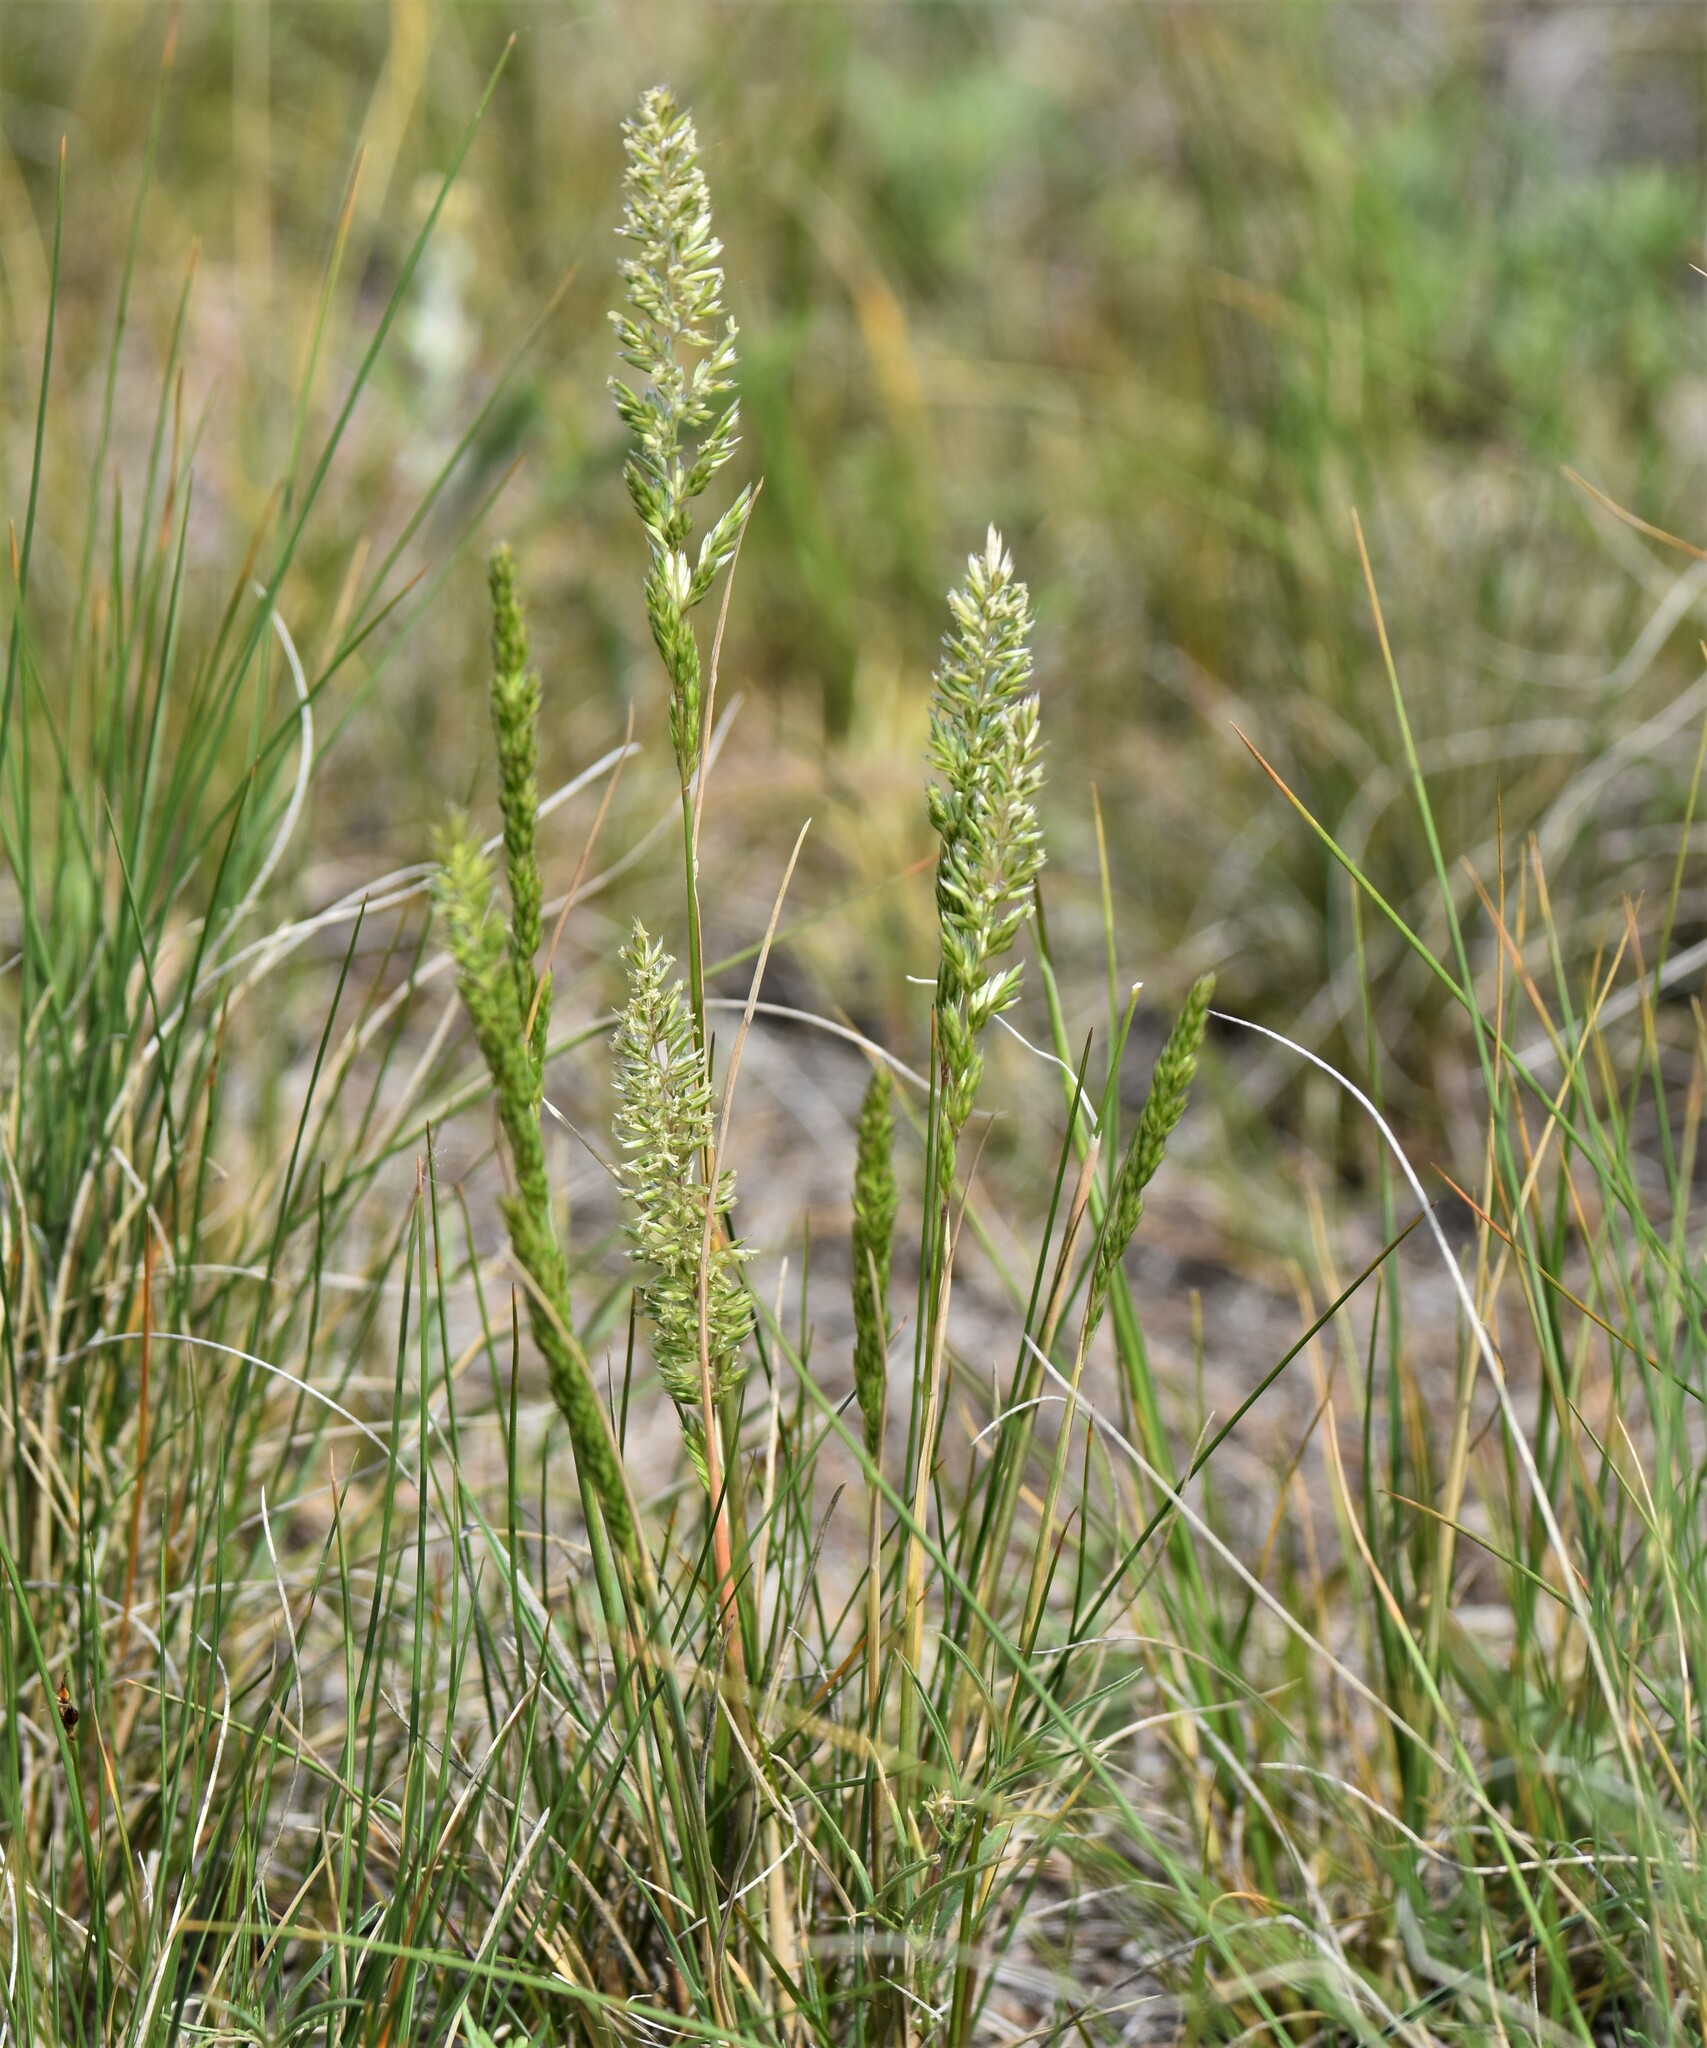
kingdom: Plantae
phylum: Tracheophyta
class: Liliopsida
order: Poales
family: Poaceae
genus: Koeleria
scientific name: Koeleria macrantha
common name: Crested hair-grass
